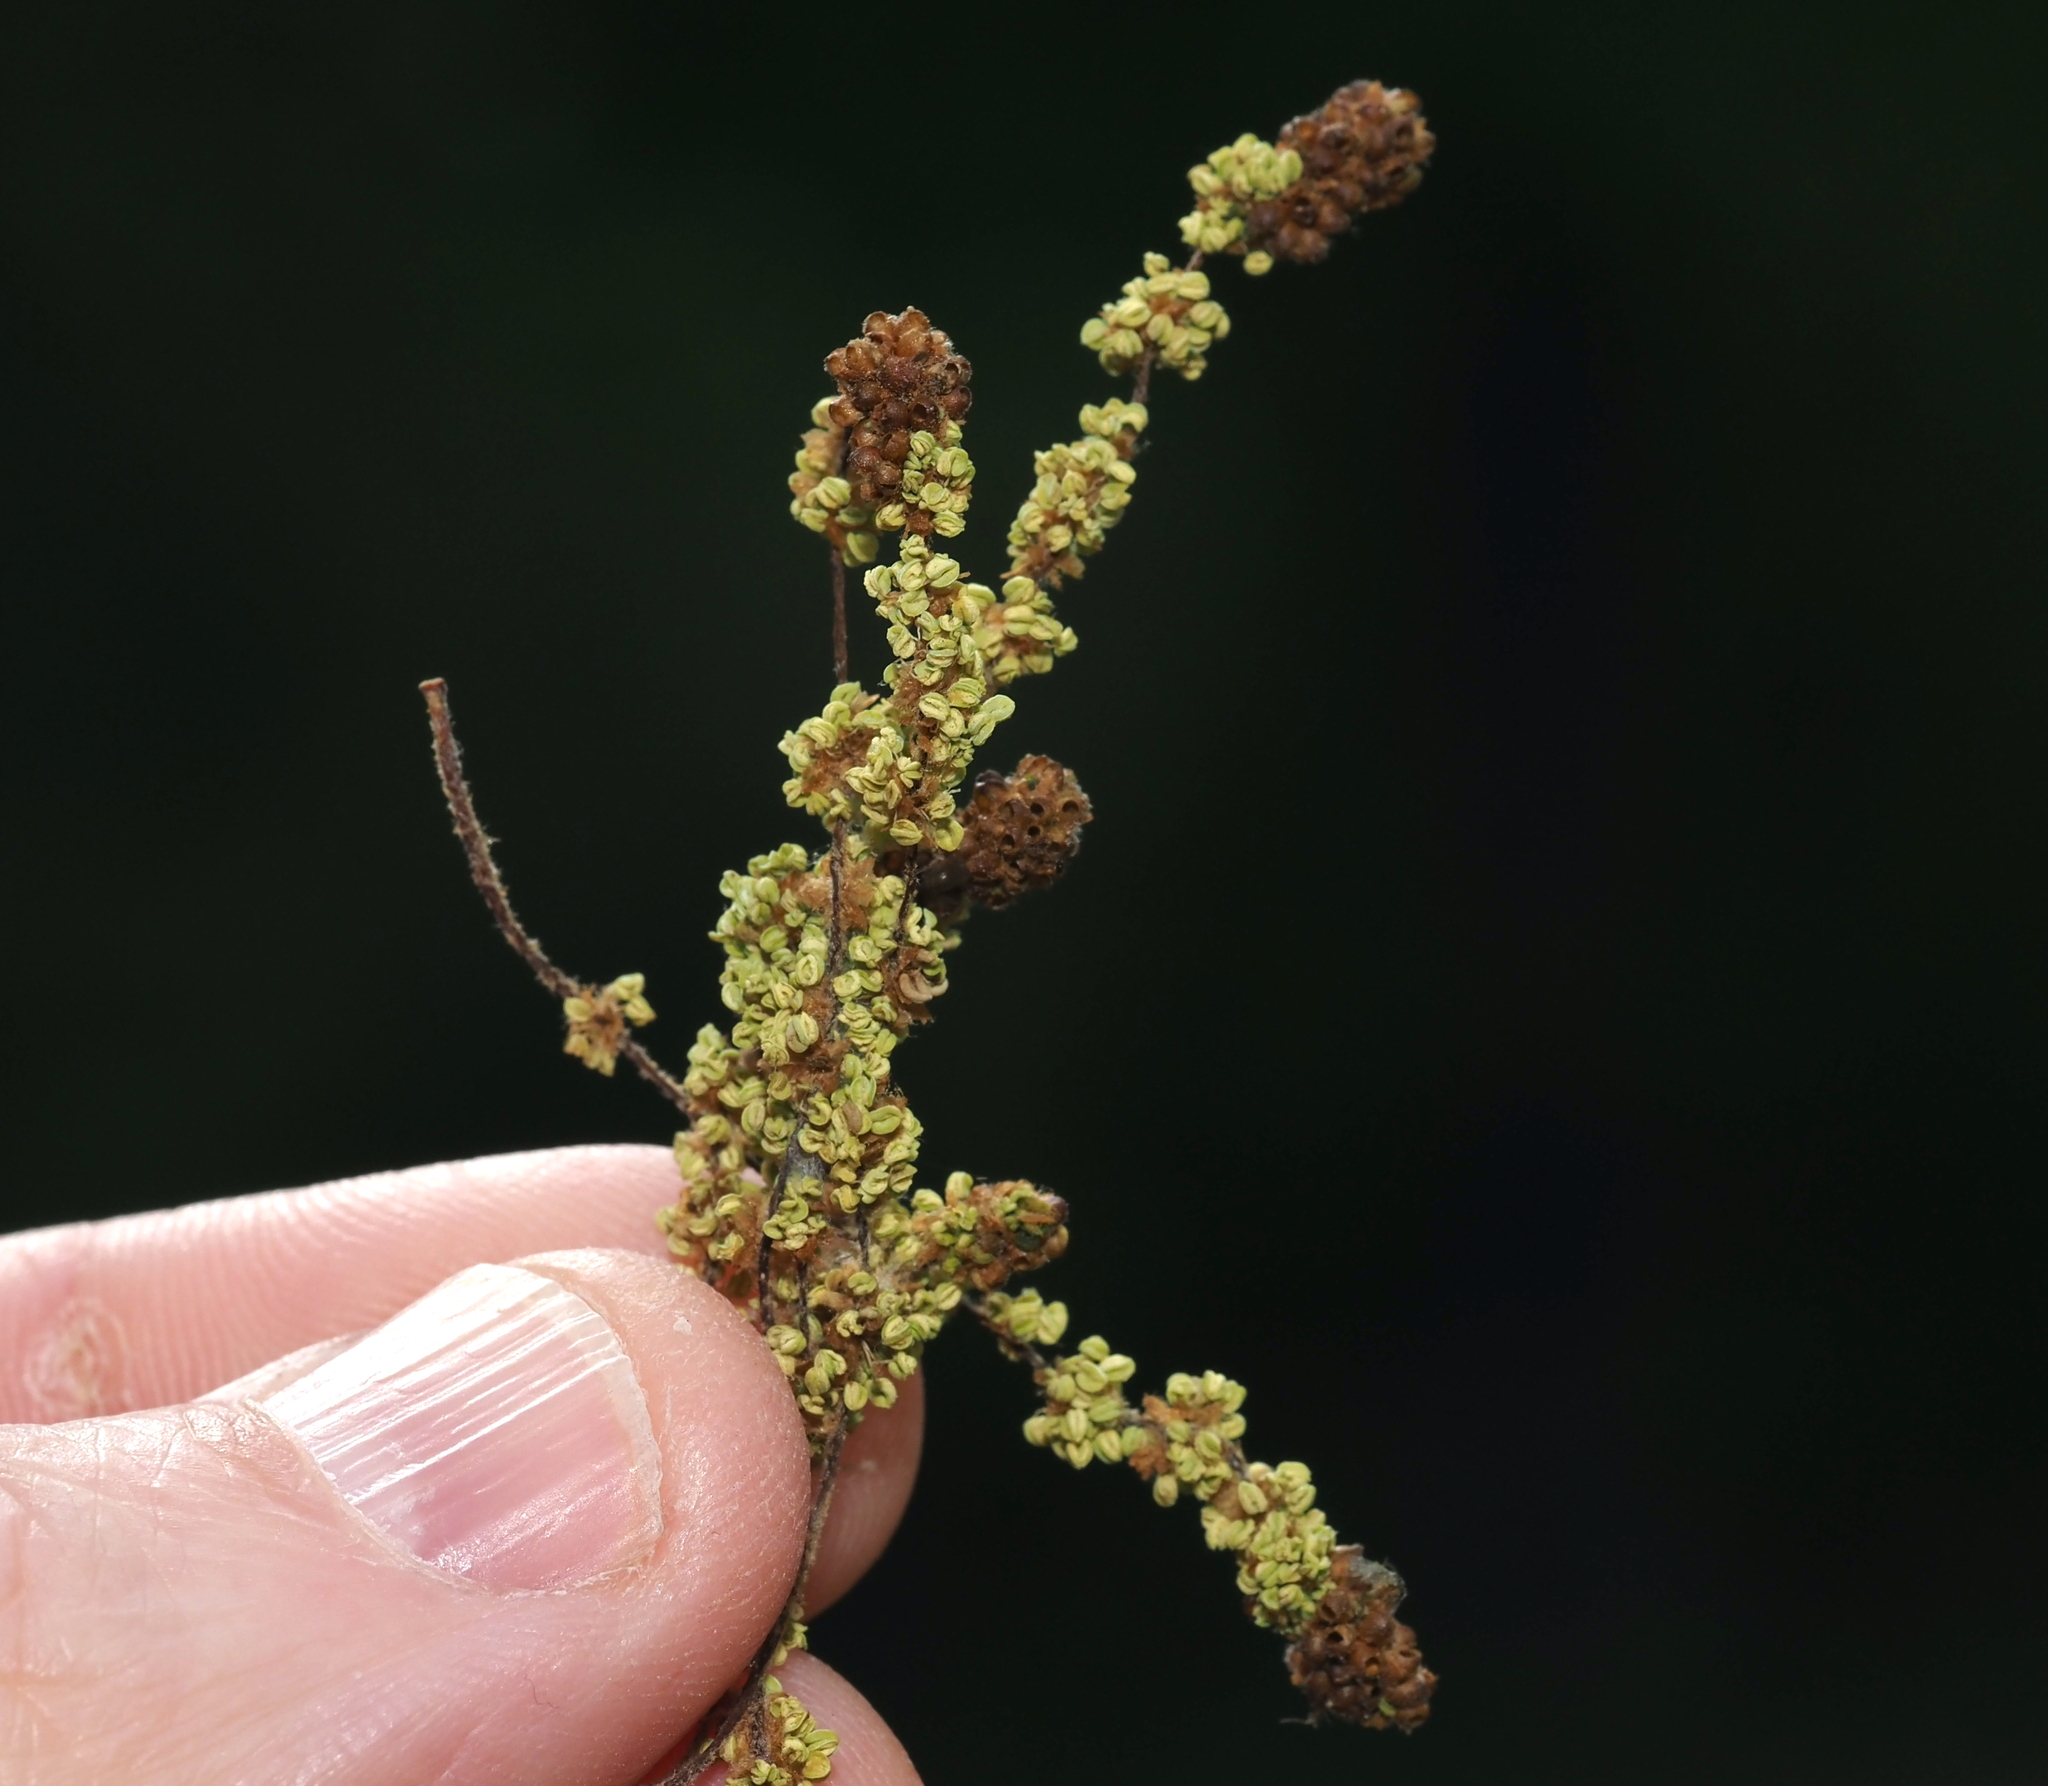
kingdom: Animalia
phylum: Arthropoda
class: Insecta
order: Hymenoptera
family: Cynipidae
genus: Callirhytis
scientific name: Callirhytis
